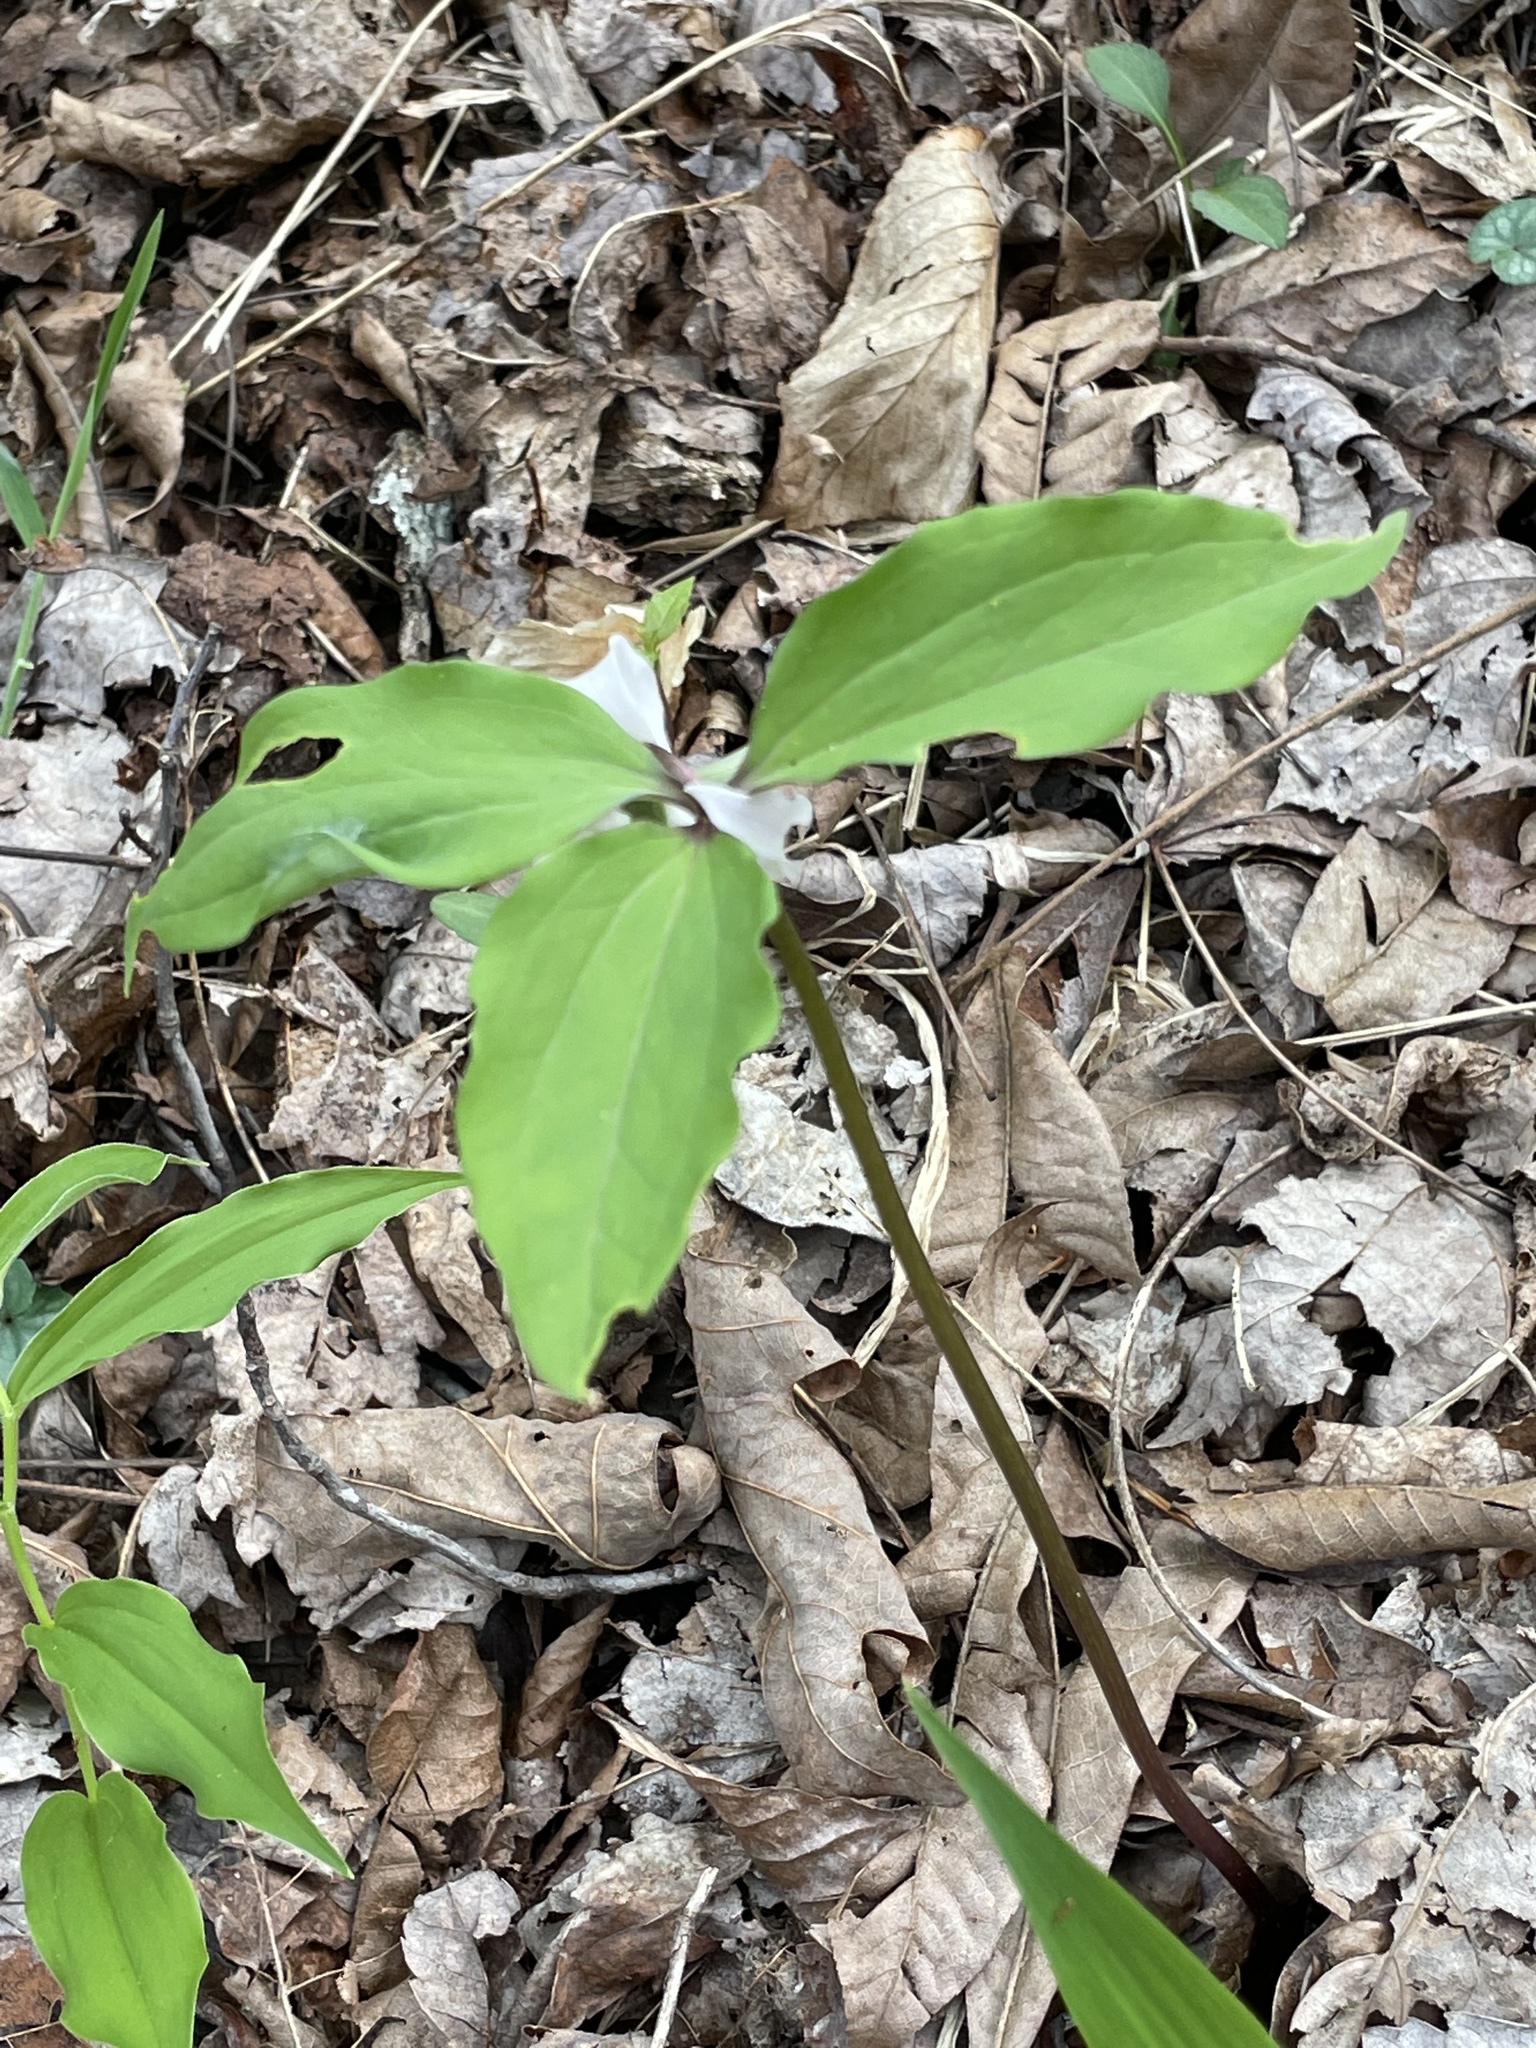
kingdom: Plantae
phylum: Tracheophyta
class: Liliopsida
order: Liliales
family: Melanthiaceae
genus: Trillium
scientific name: Trillium catesbaei
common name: Bashful trillium
